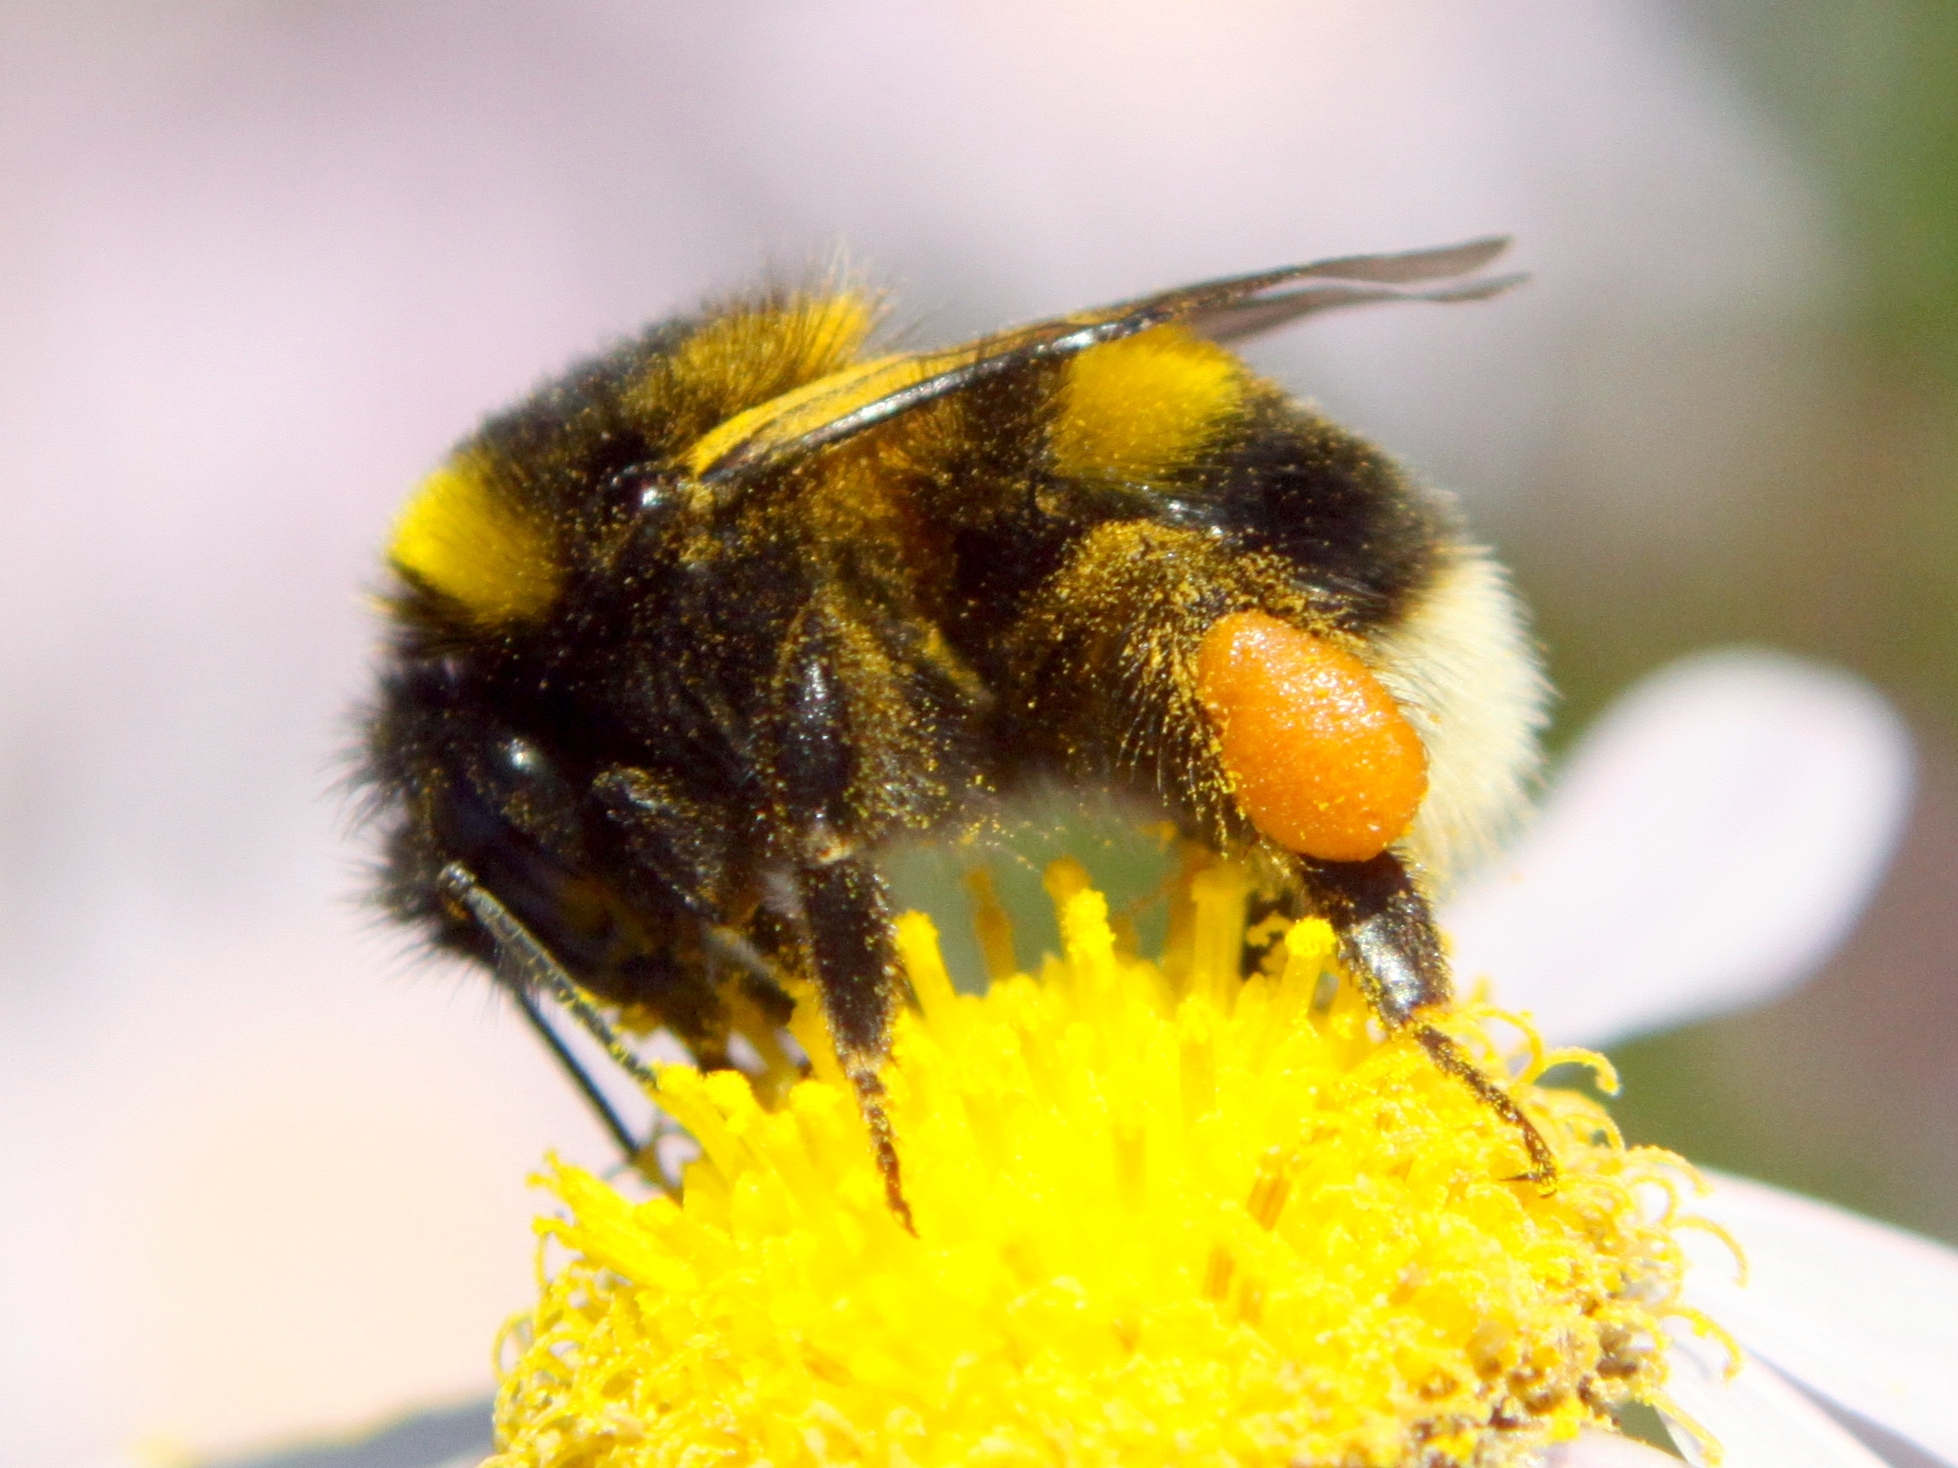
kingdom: Animalia
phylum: Arthropoda
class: Insecta
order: Hymenoptera
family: Apidae
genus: Bombus
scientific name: Bombus terrestris
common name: Buff-tailed bumblebee
